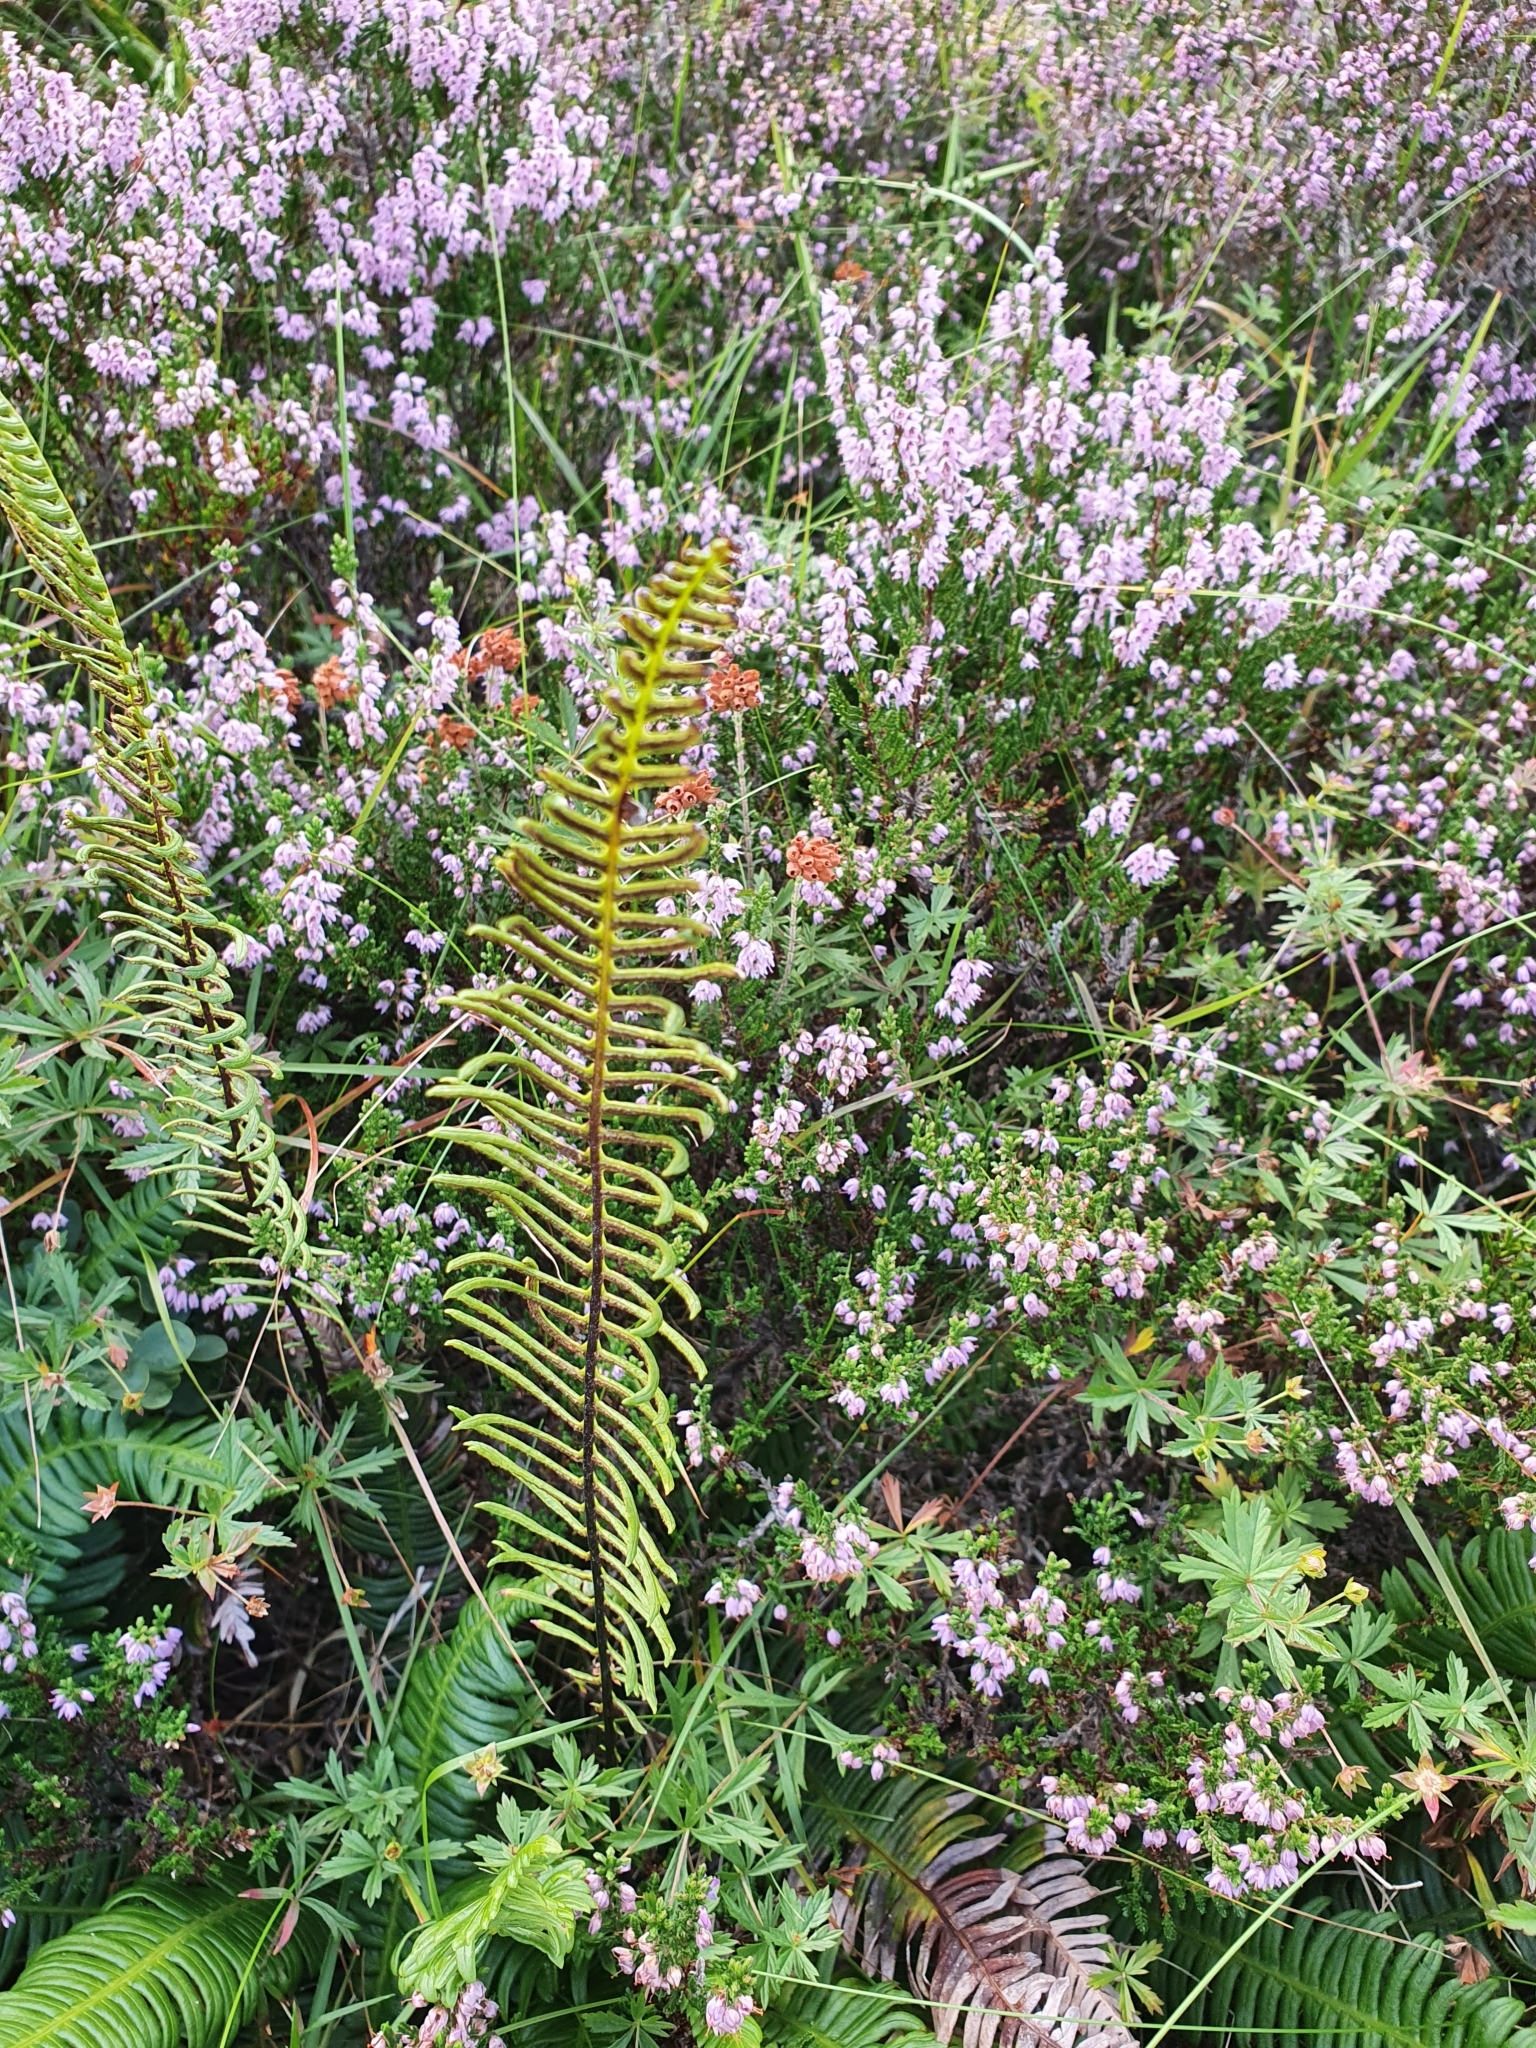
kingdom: Plantae
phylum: Tracheophyta
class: Polypodiopsida
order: Polypodiales
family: Blechnaceae
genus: Struthiopteris
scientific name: Struthiopteris spicant
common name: Deer fern
